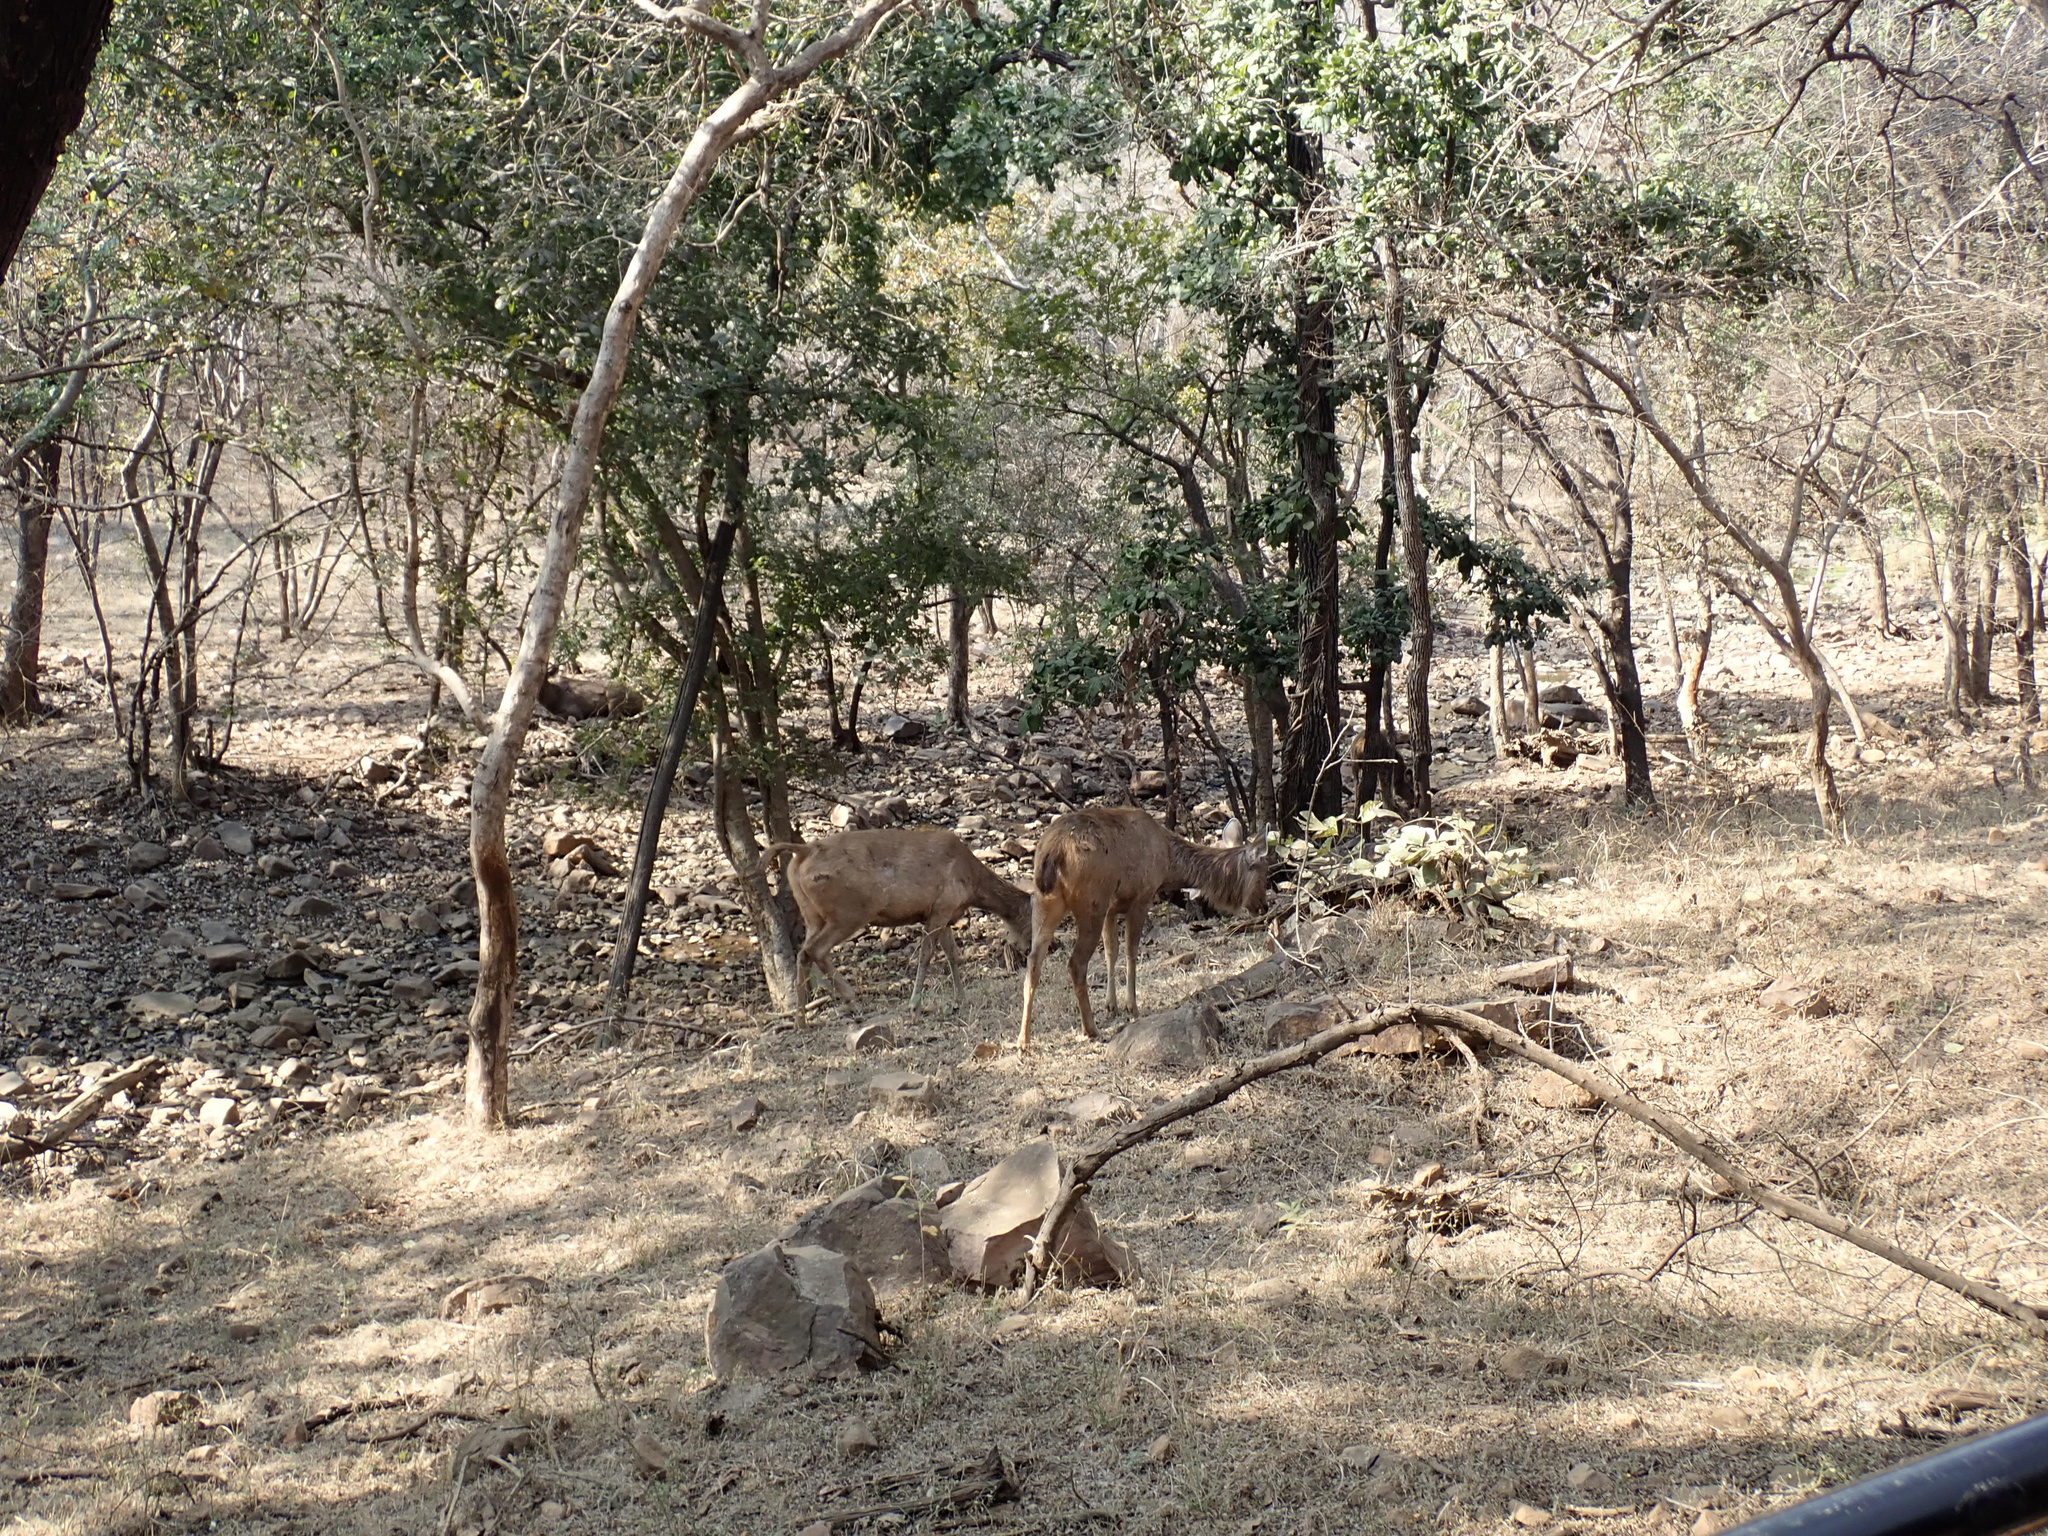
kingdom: Animalia
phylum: Chordata
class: Mammalia
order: Artiodactyla
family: Cervidae
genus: Rusa
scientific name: Rusa unicolor
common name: Sambar
